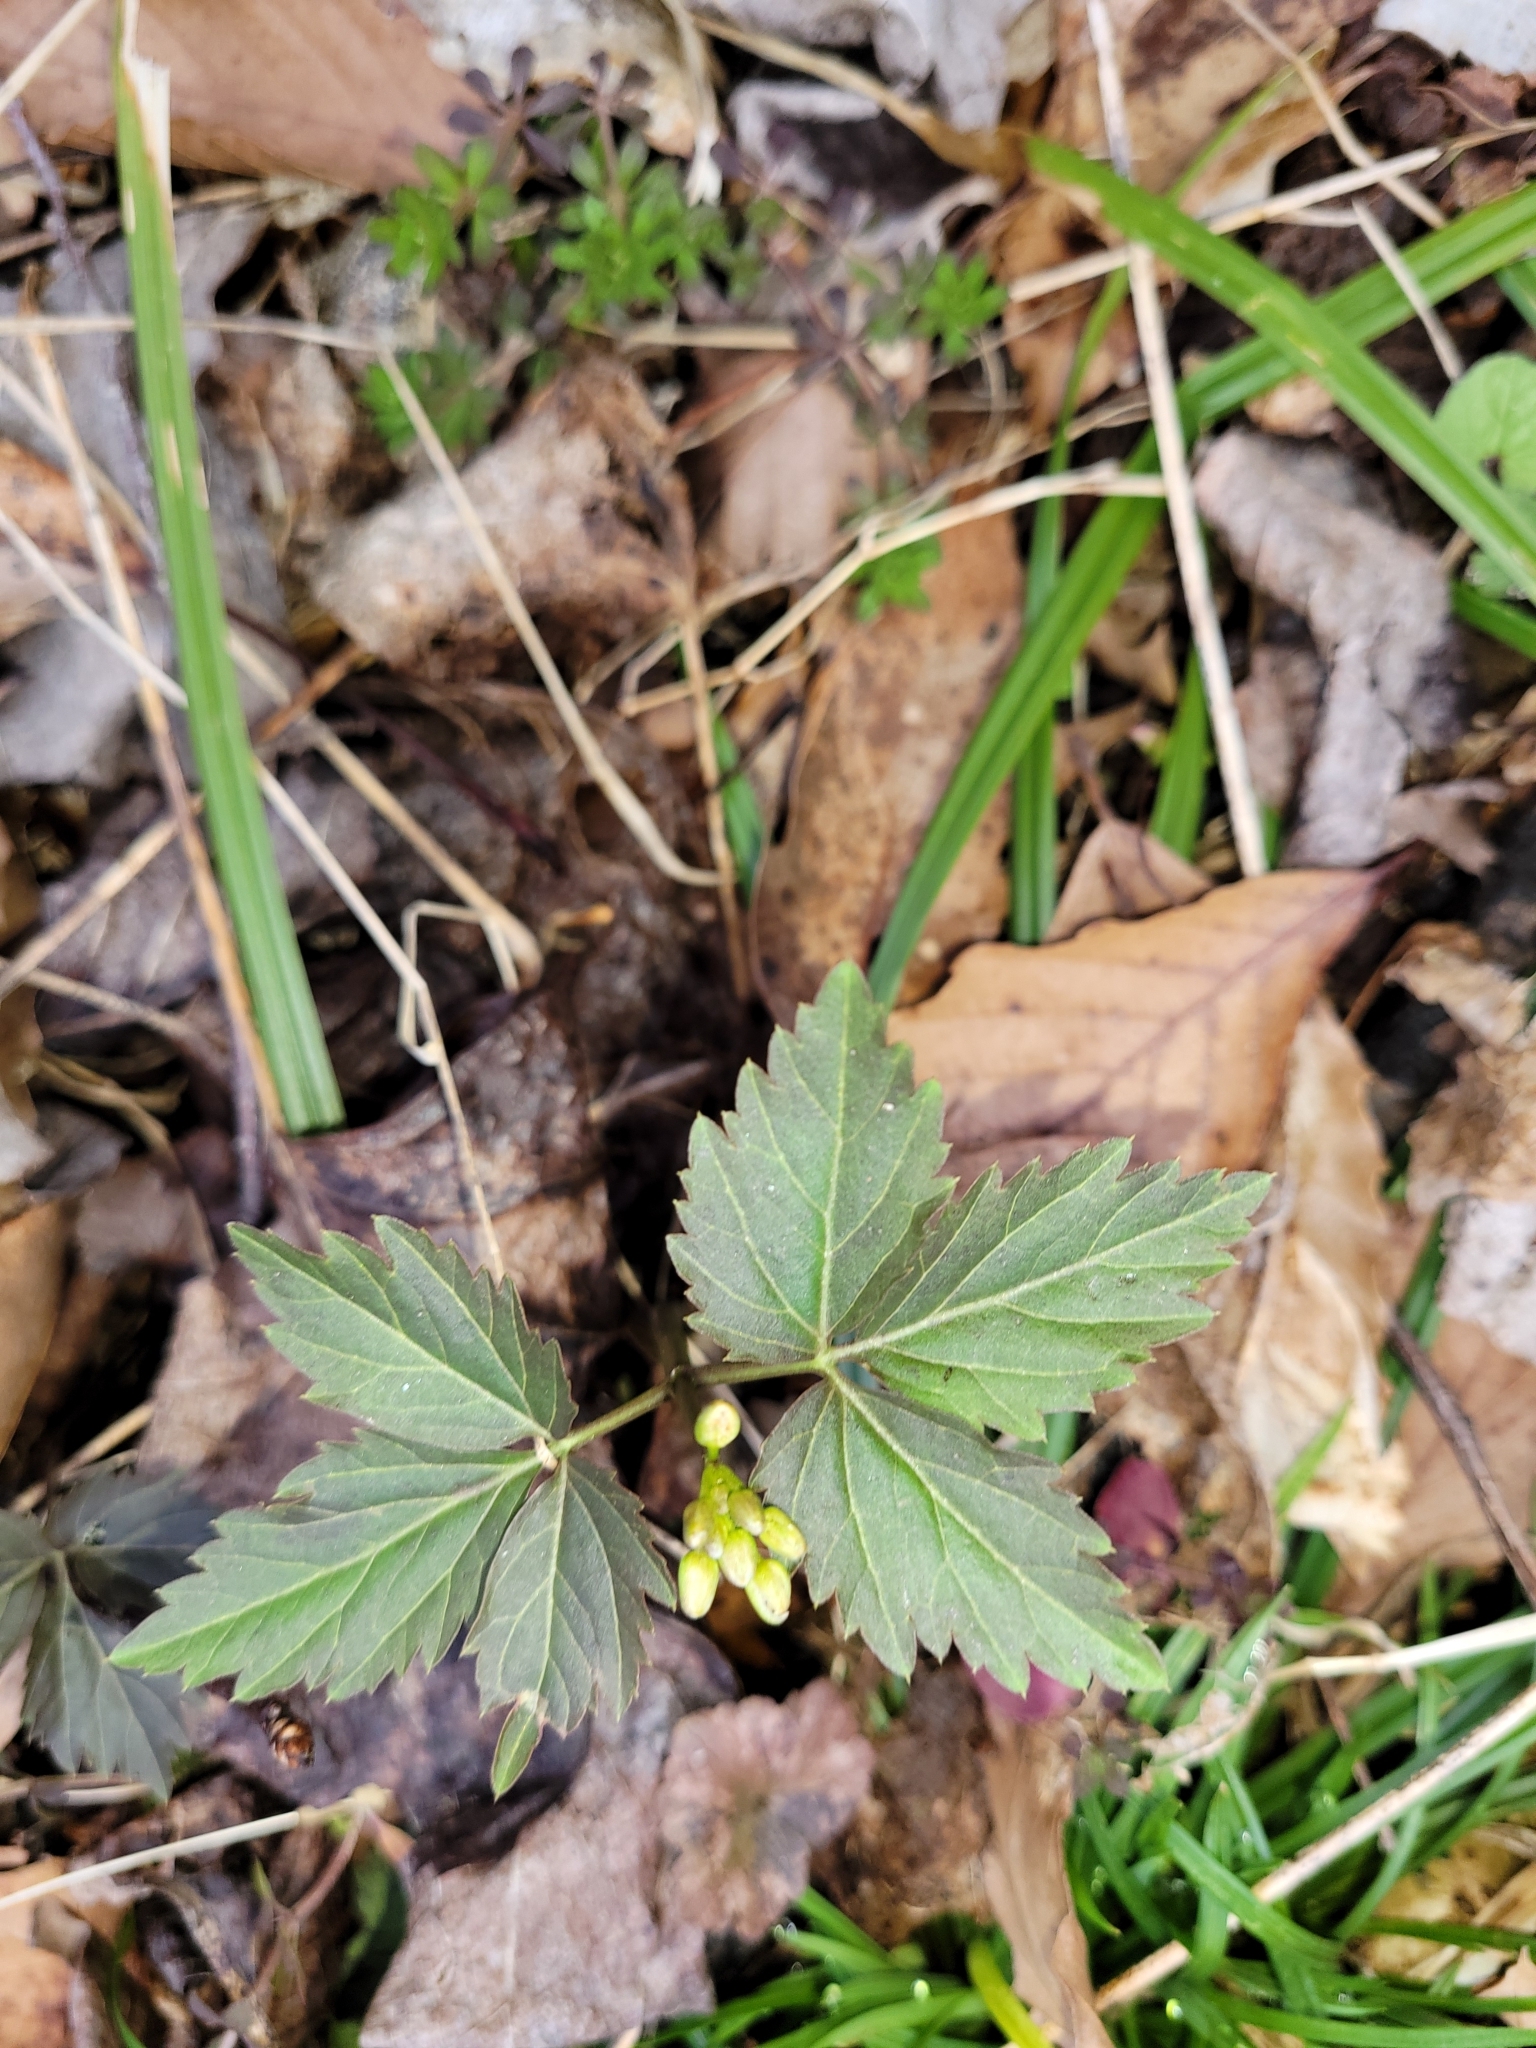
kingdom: Plantae
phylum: Tracheophyta
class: Magnoliopsida
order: Brassicales
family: Brassicaceae
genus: Cardamine
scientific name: Cardamine diphylla
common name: Broad-leaved toothwort
